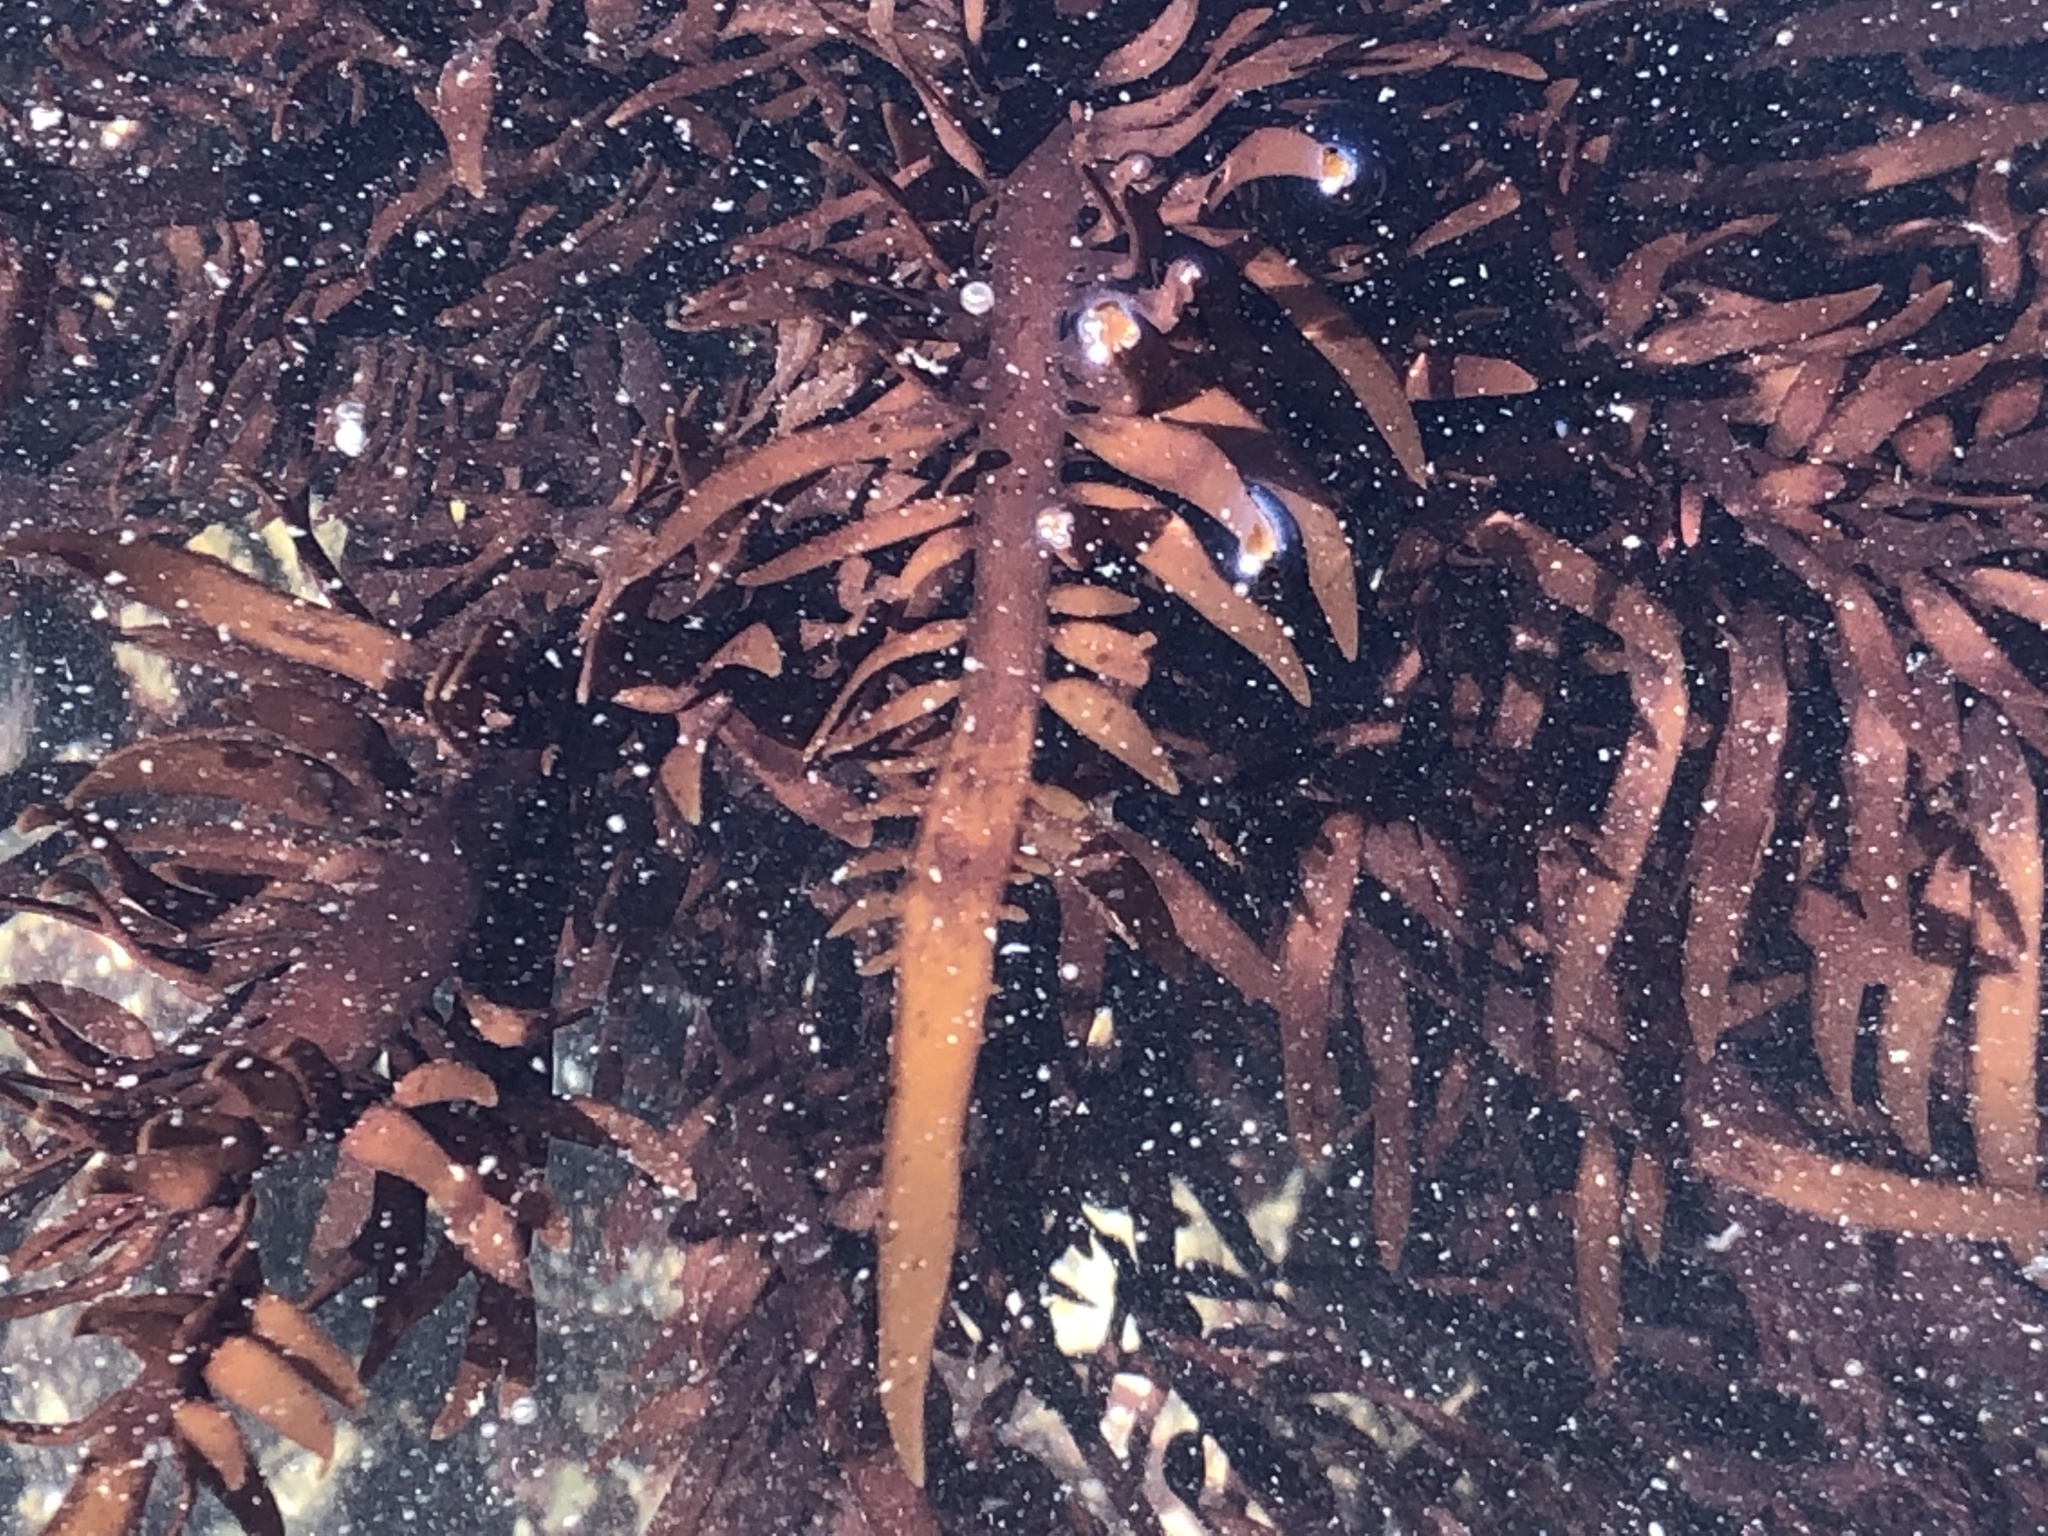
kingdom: Plantae
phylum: Rhodophyta
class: Florideophyceae
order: Halymeniales
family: Halymeniaceae
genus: Grateloupia
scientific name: Grateloupia Prionitis lanceolata
